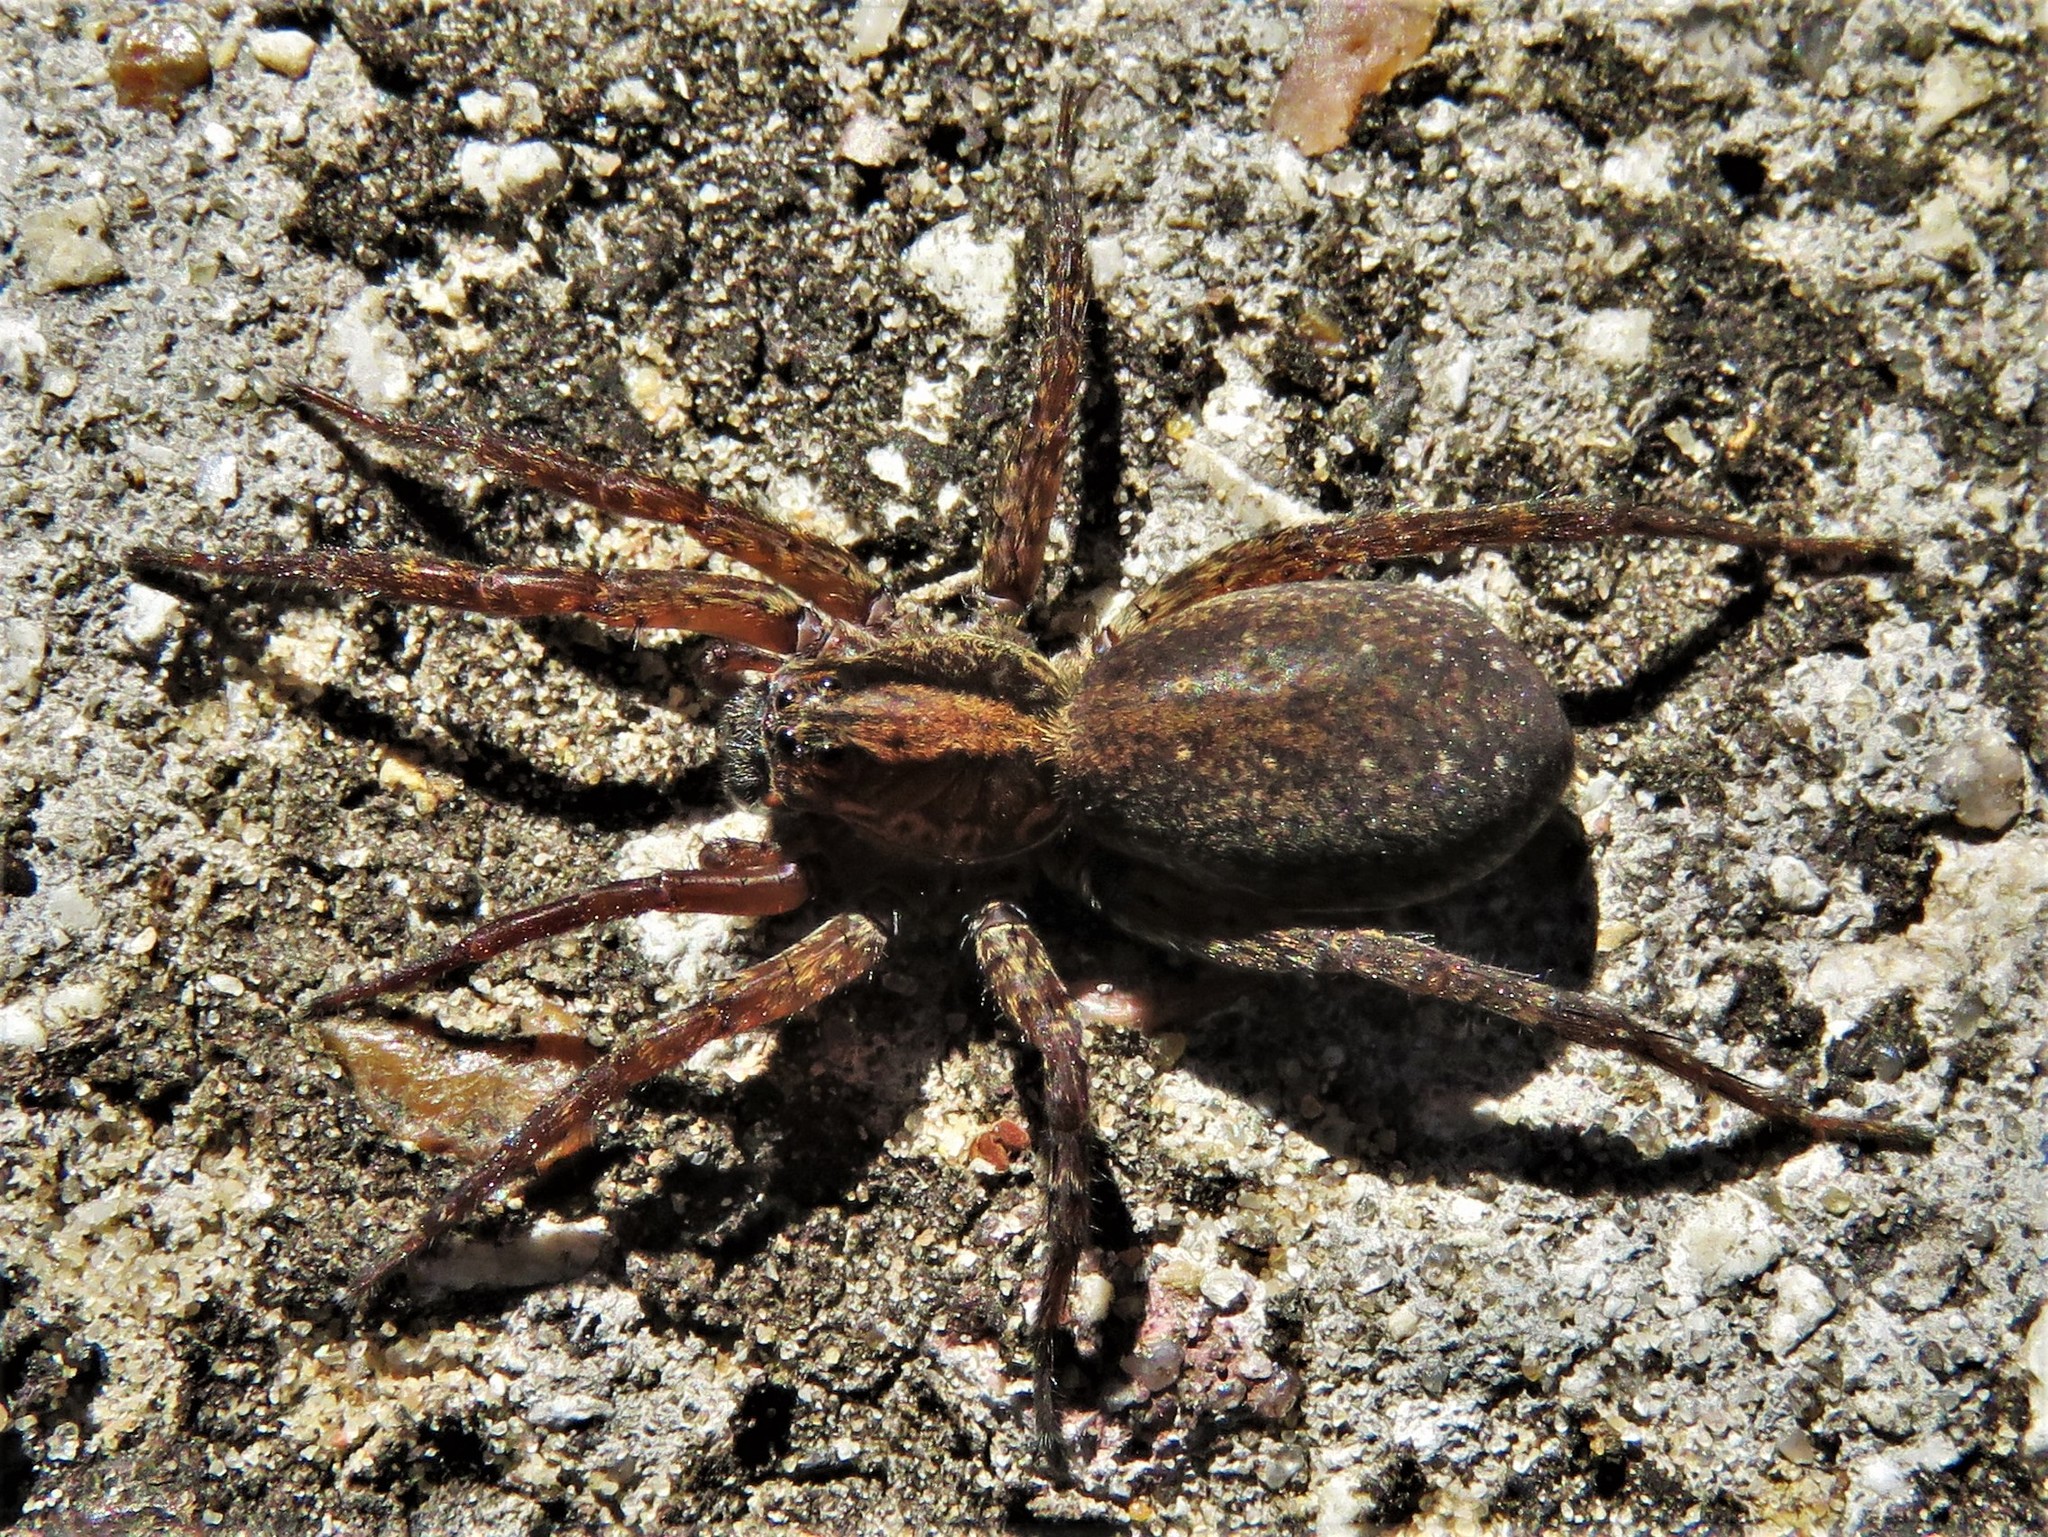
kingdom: Animalia
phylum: Arthropoda
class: Arachnida
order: Araneae
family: Lycosidae
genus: Varacosa
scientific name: Varacosa avara
